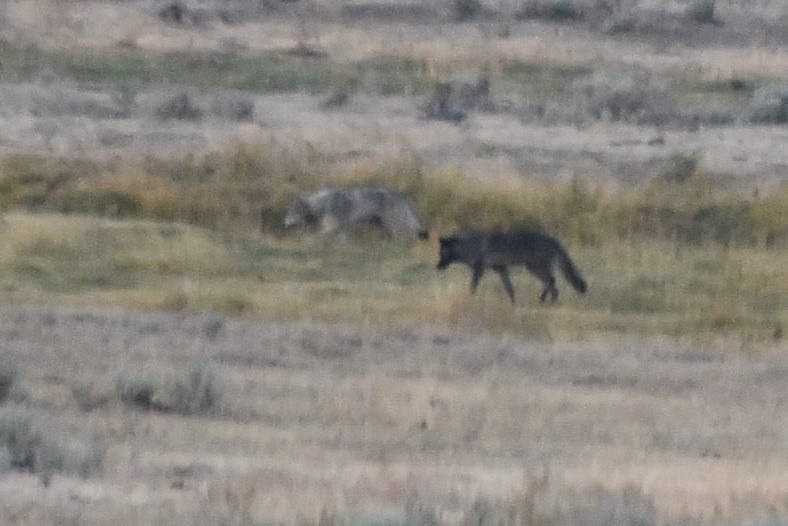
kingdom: Animalia
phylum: Chordata
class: Mammalia
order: Carnivora
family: Canidae
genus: Canis
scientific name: Canis lupus
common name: Gray wolf
